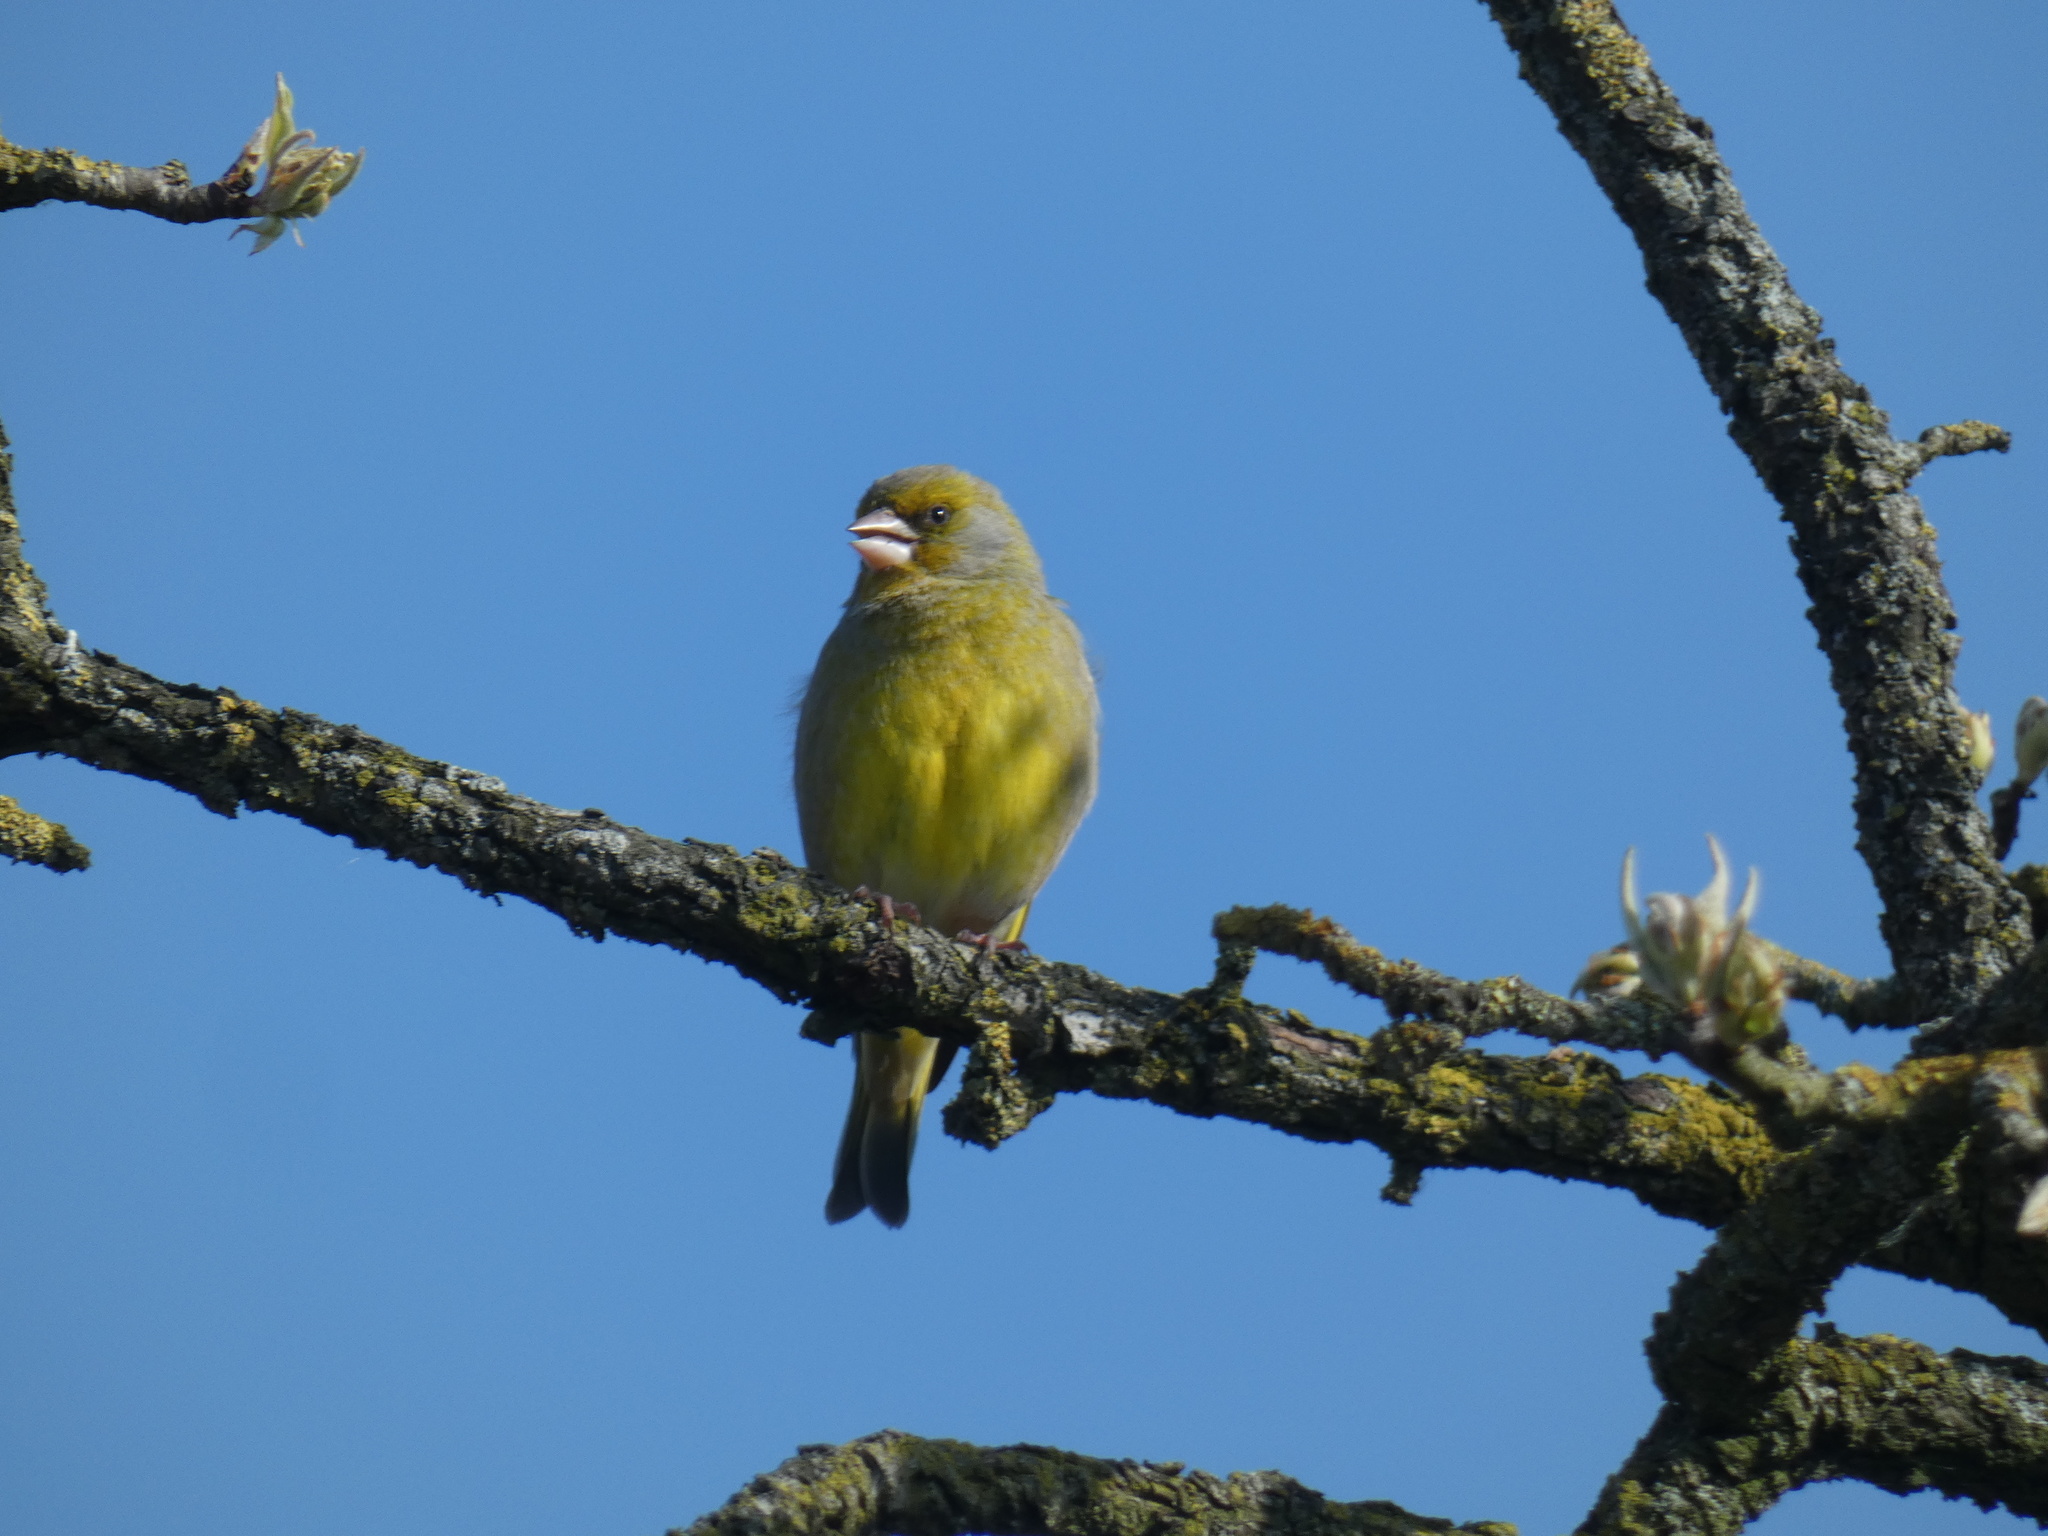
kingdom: Plantae
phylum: Tracheophyta
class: Liliopsida
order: Poales
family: Poaceae
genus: Chloris
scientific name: Chloris chloris
